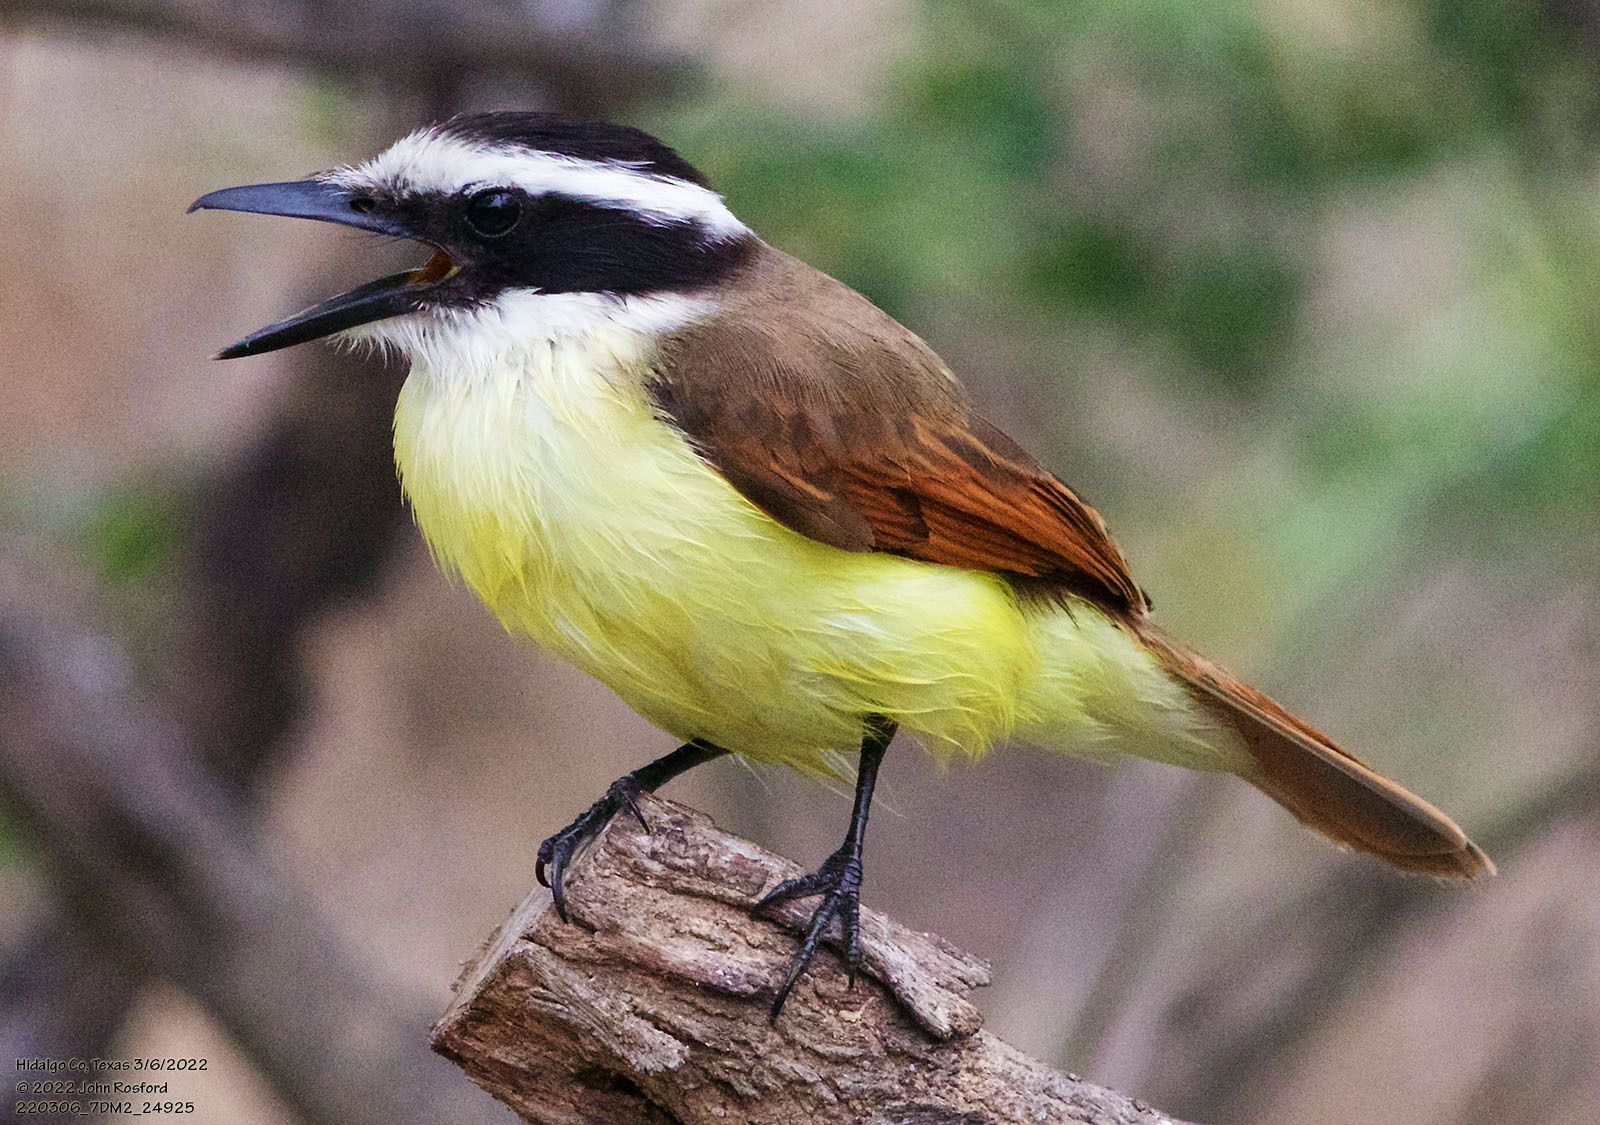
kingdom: Animalia
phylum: Chordata
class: Aves
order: Passeriformes
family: Tyrannidae
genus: Pitangus
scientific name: Pitangus sulphuratus
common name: Great kiskadee
